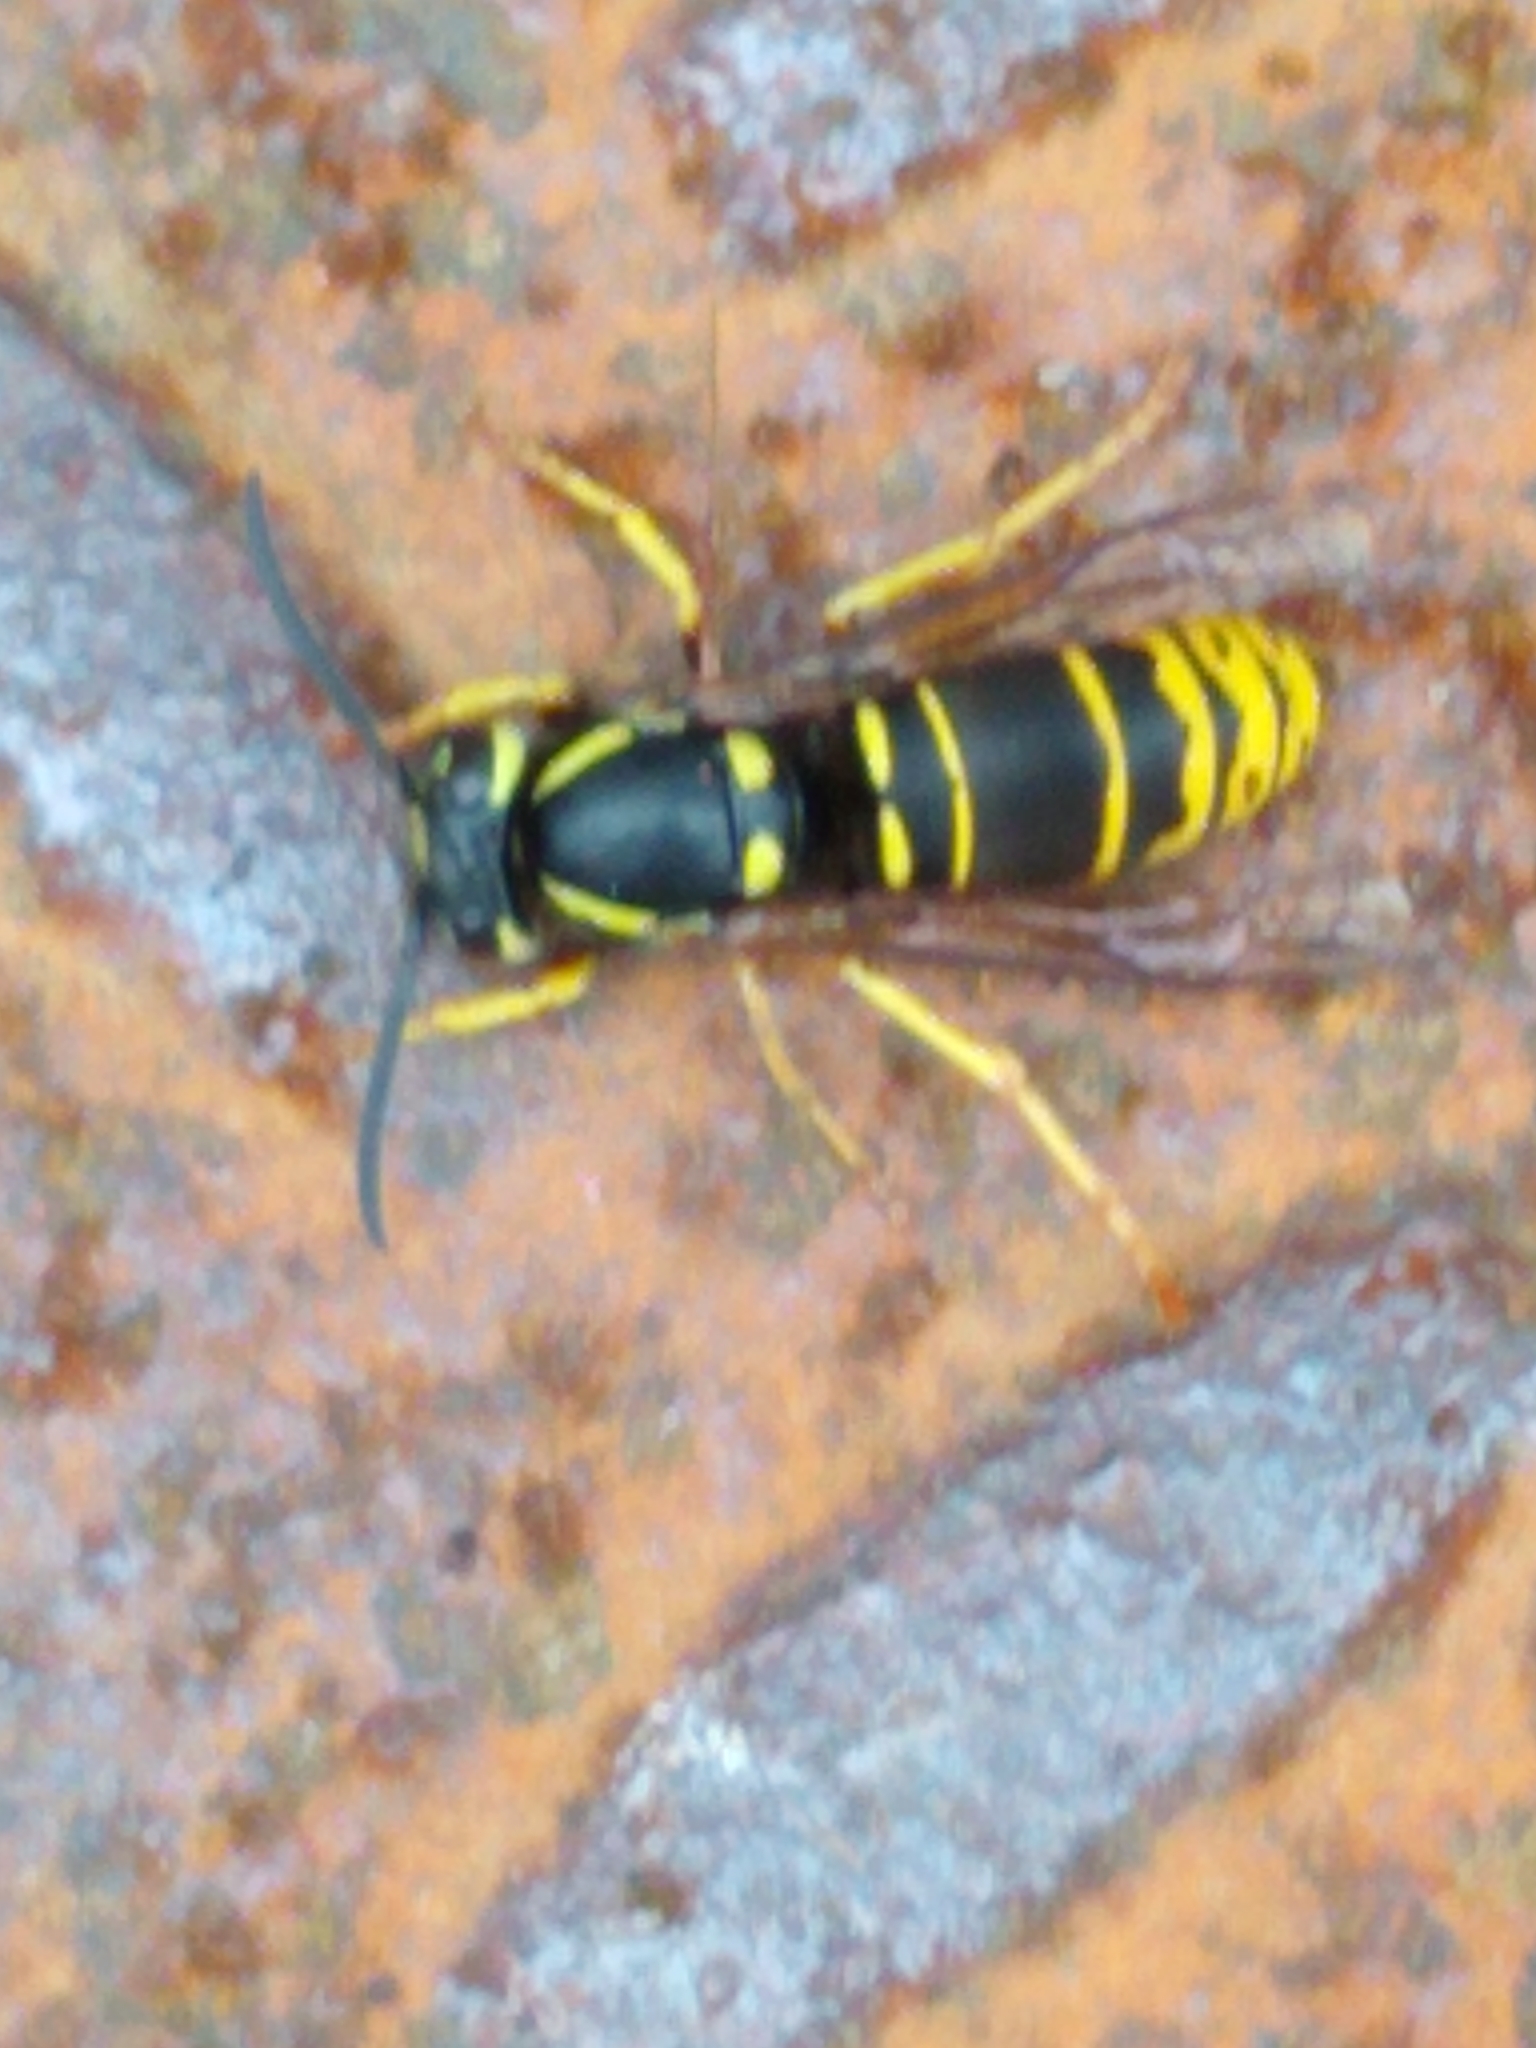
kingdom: Animalia
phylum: Arthropoda
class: Insecta
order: Hymenoptera
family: Vespidae
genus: Vespula
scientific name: Vespula vidua
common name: Widow yellowjacket
